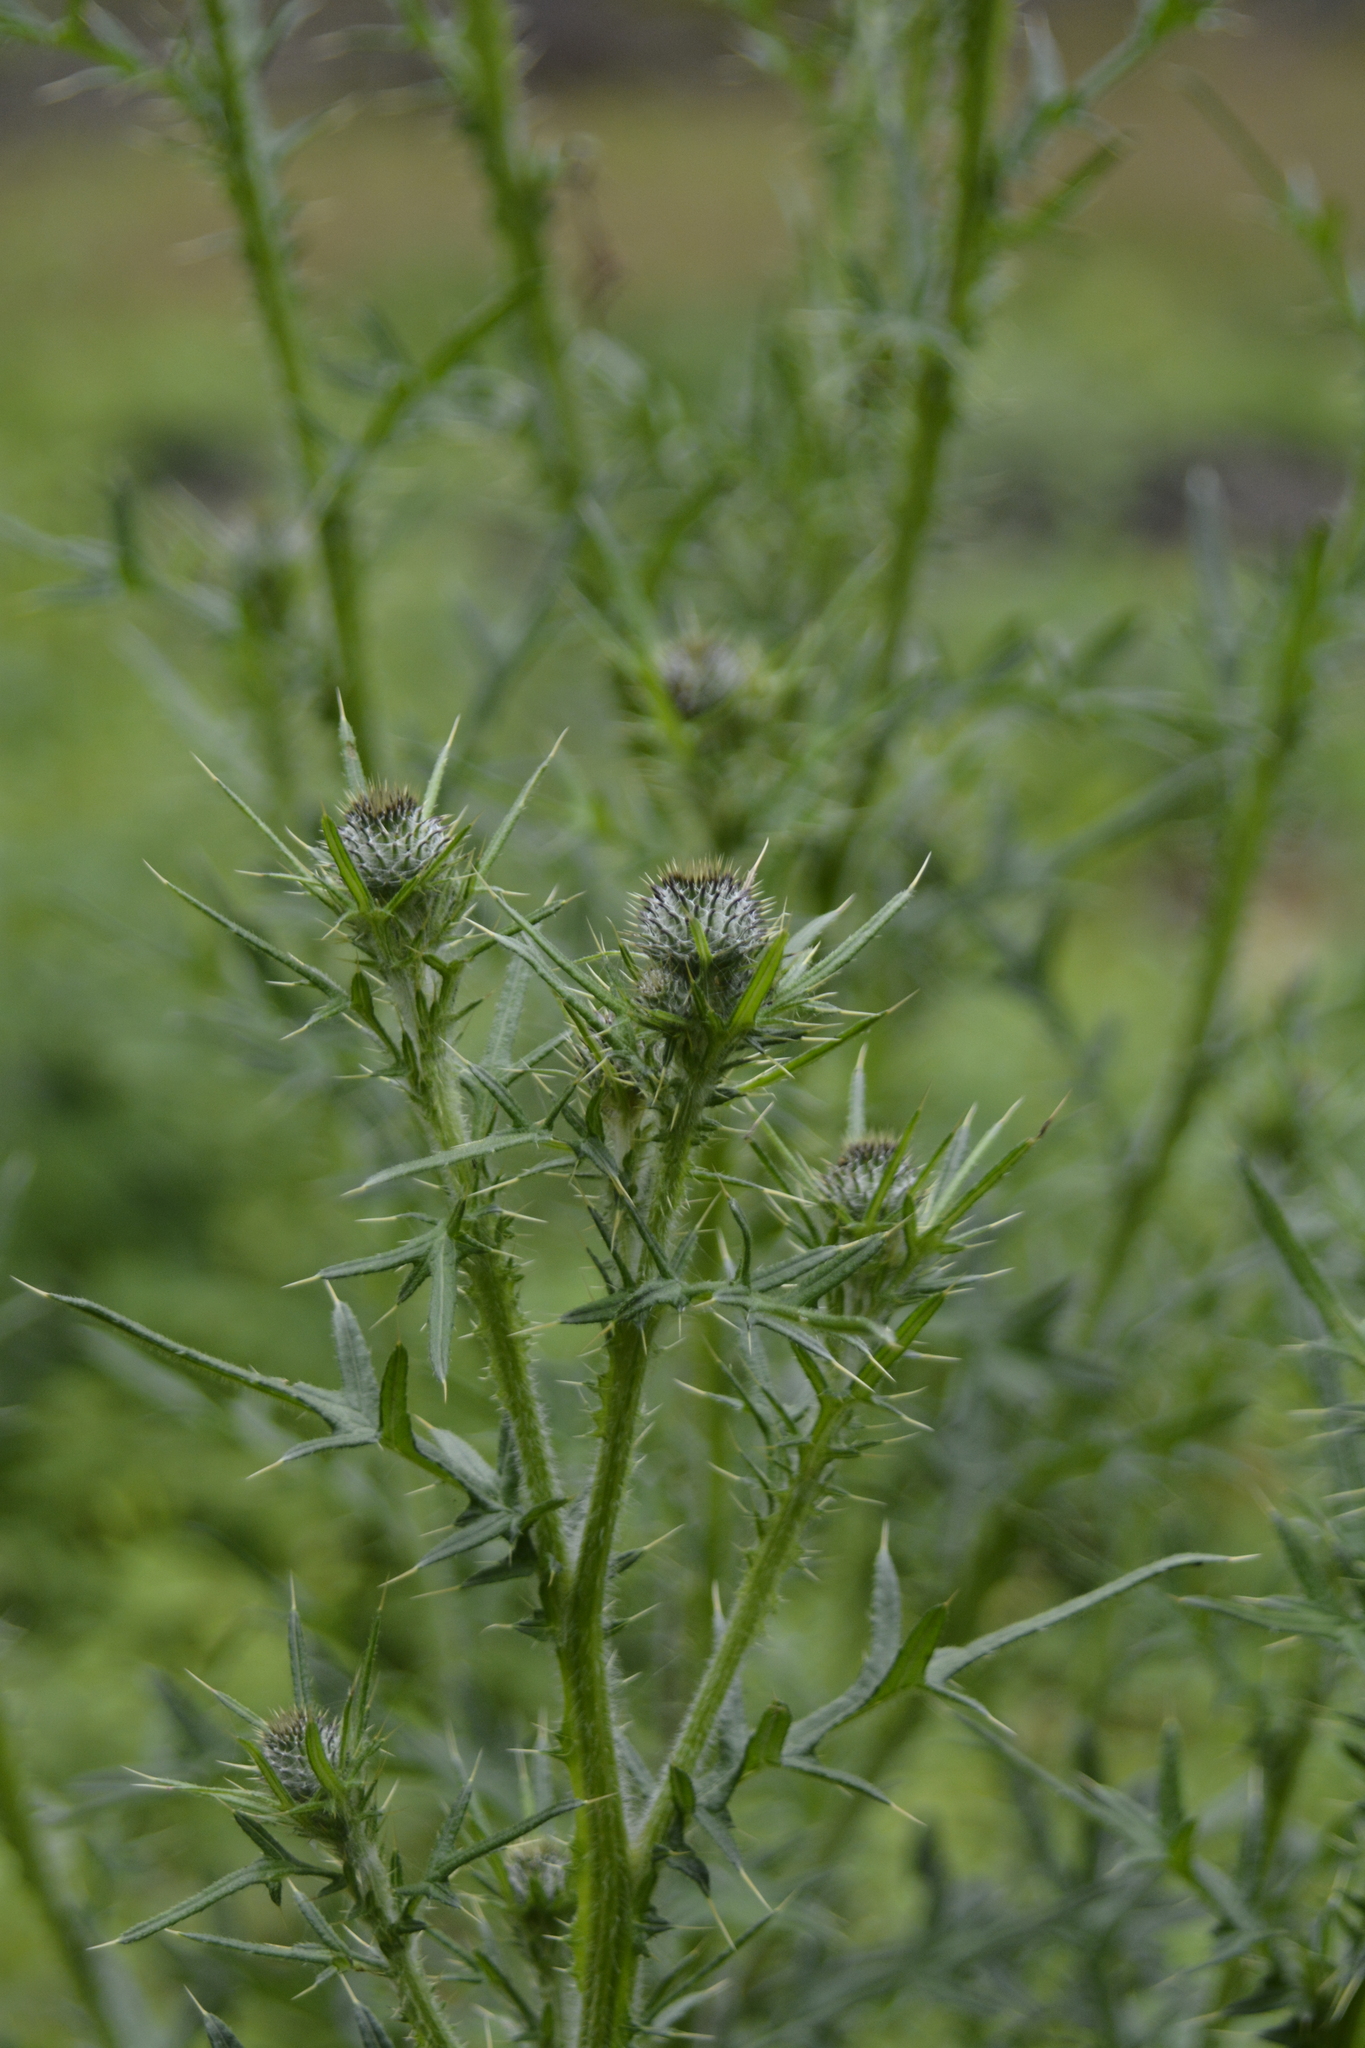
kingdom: Plantae
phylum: Tracheophyta
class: Magnoliopsida
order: Asterales
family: Asteraceae
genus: Cirsium
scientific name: Cirsium vulgare
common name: Bull thistle
